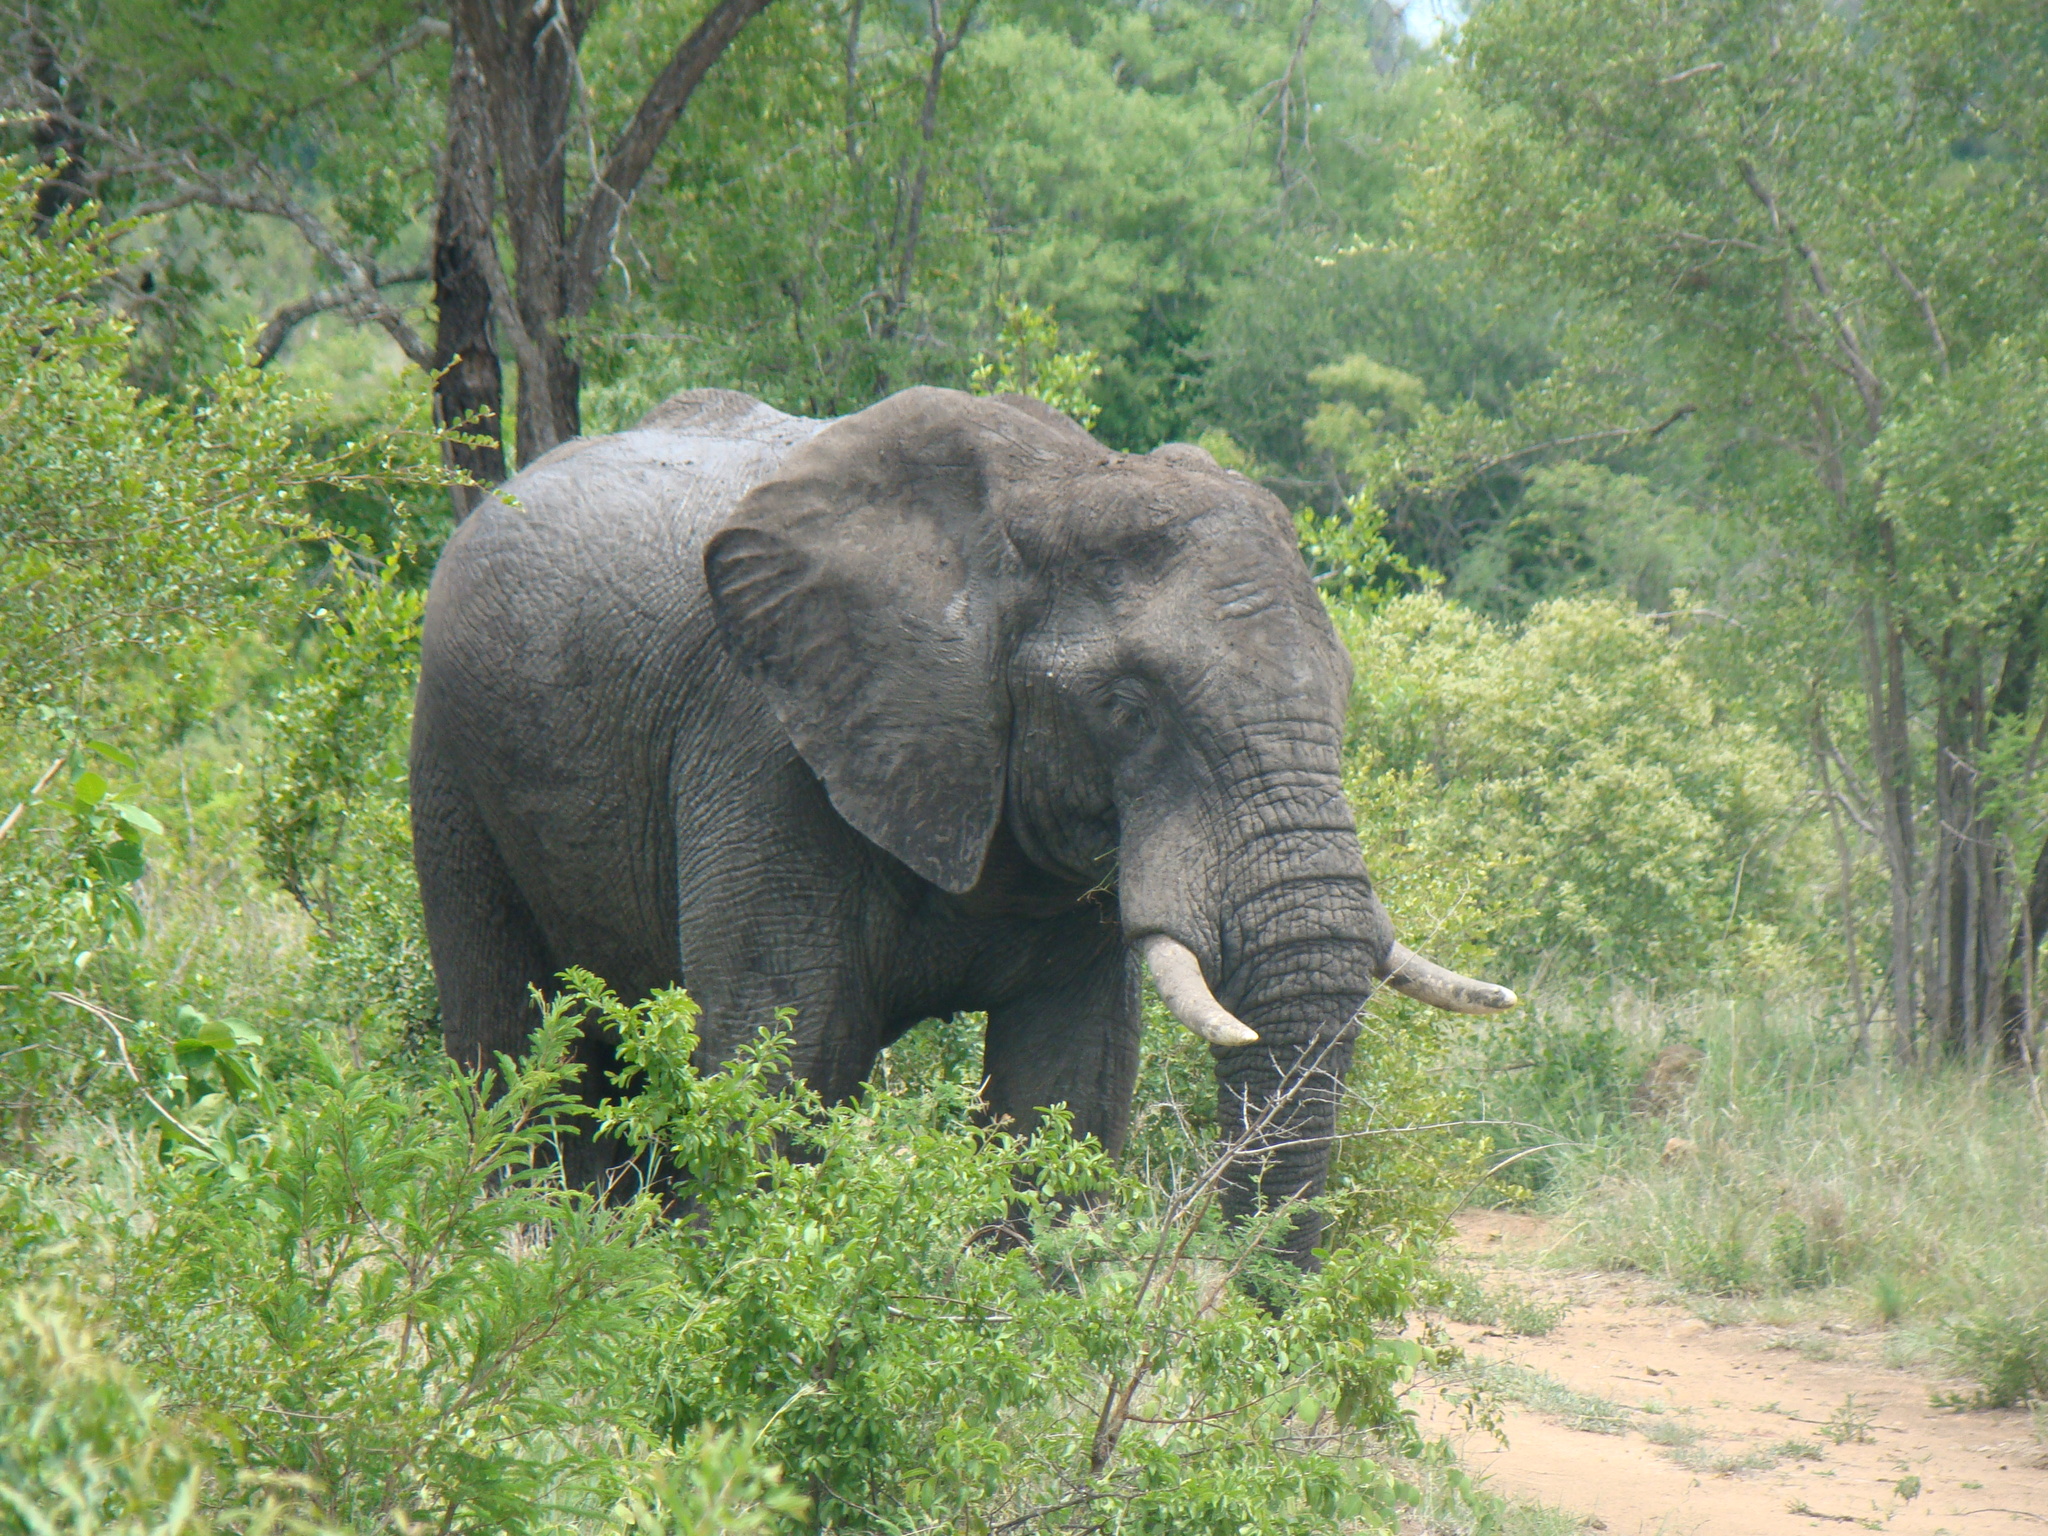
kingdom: Animalia
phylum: Chordata
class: Mammalia
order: Proboscidea
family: Elephantidae
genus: Loxodonta
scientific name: Loxodonta africana
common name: African elephant
